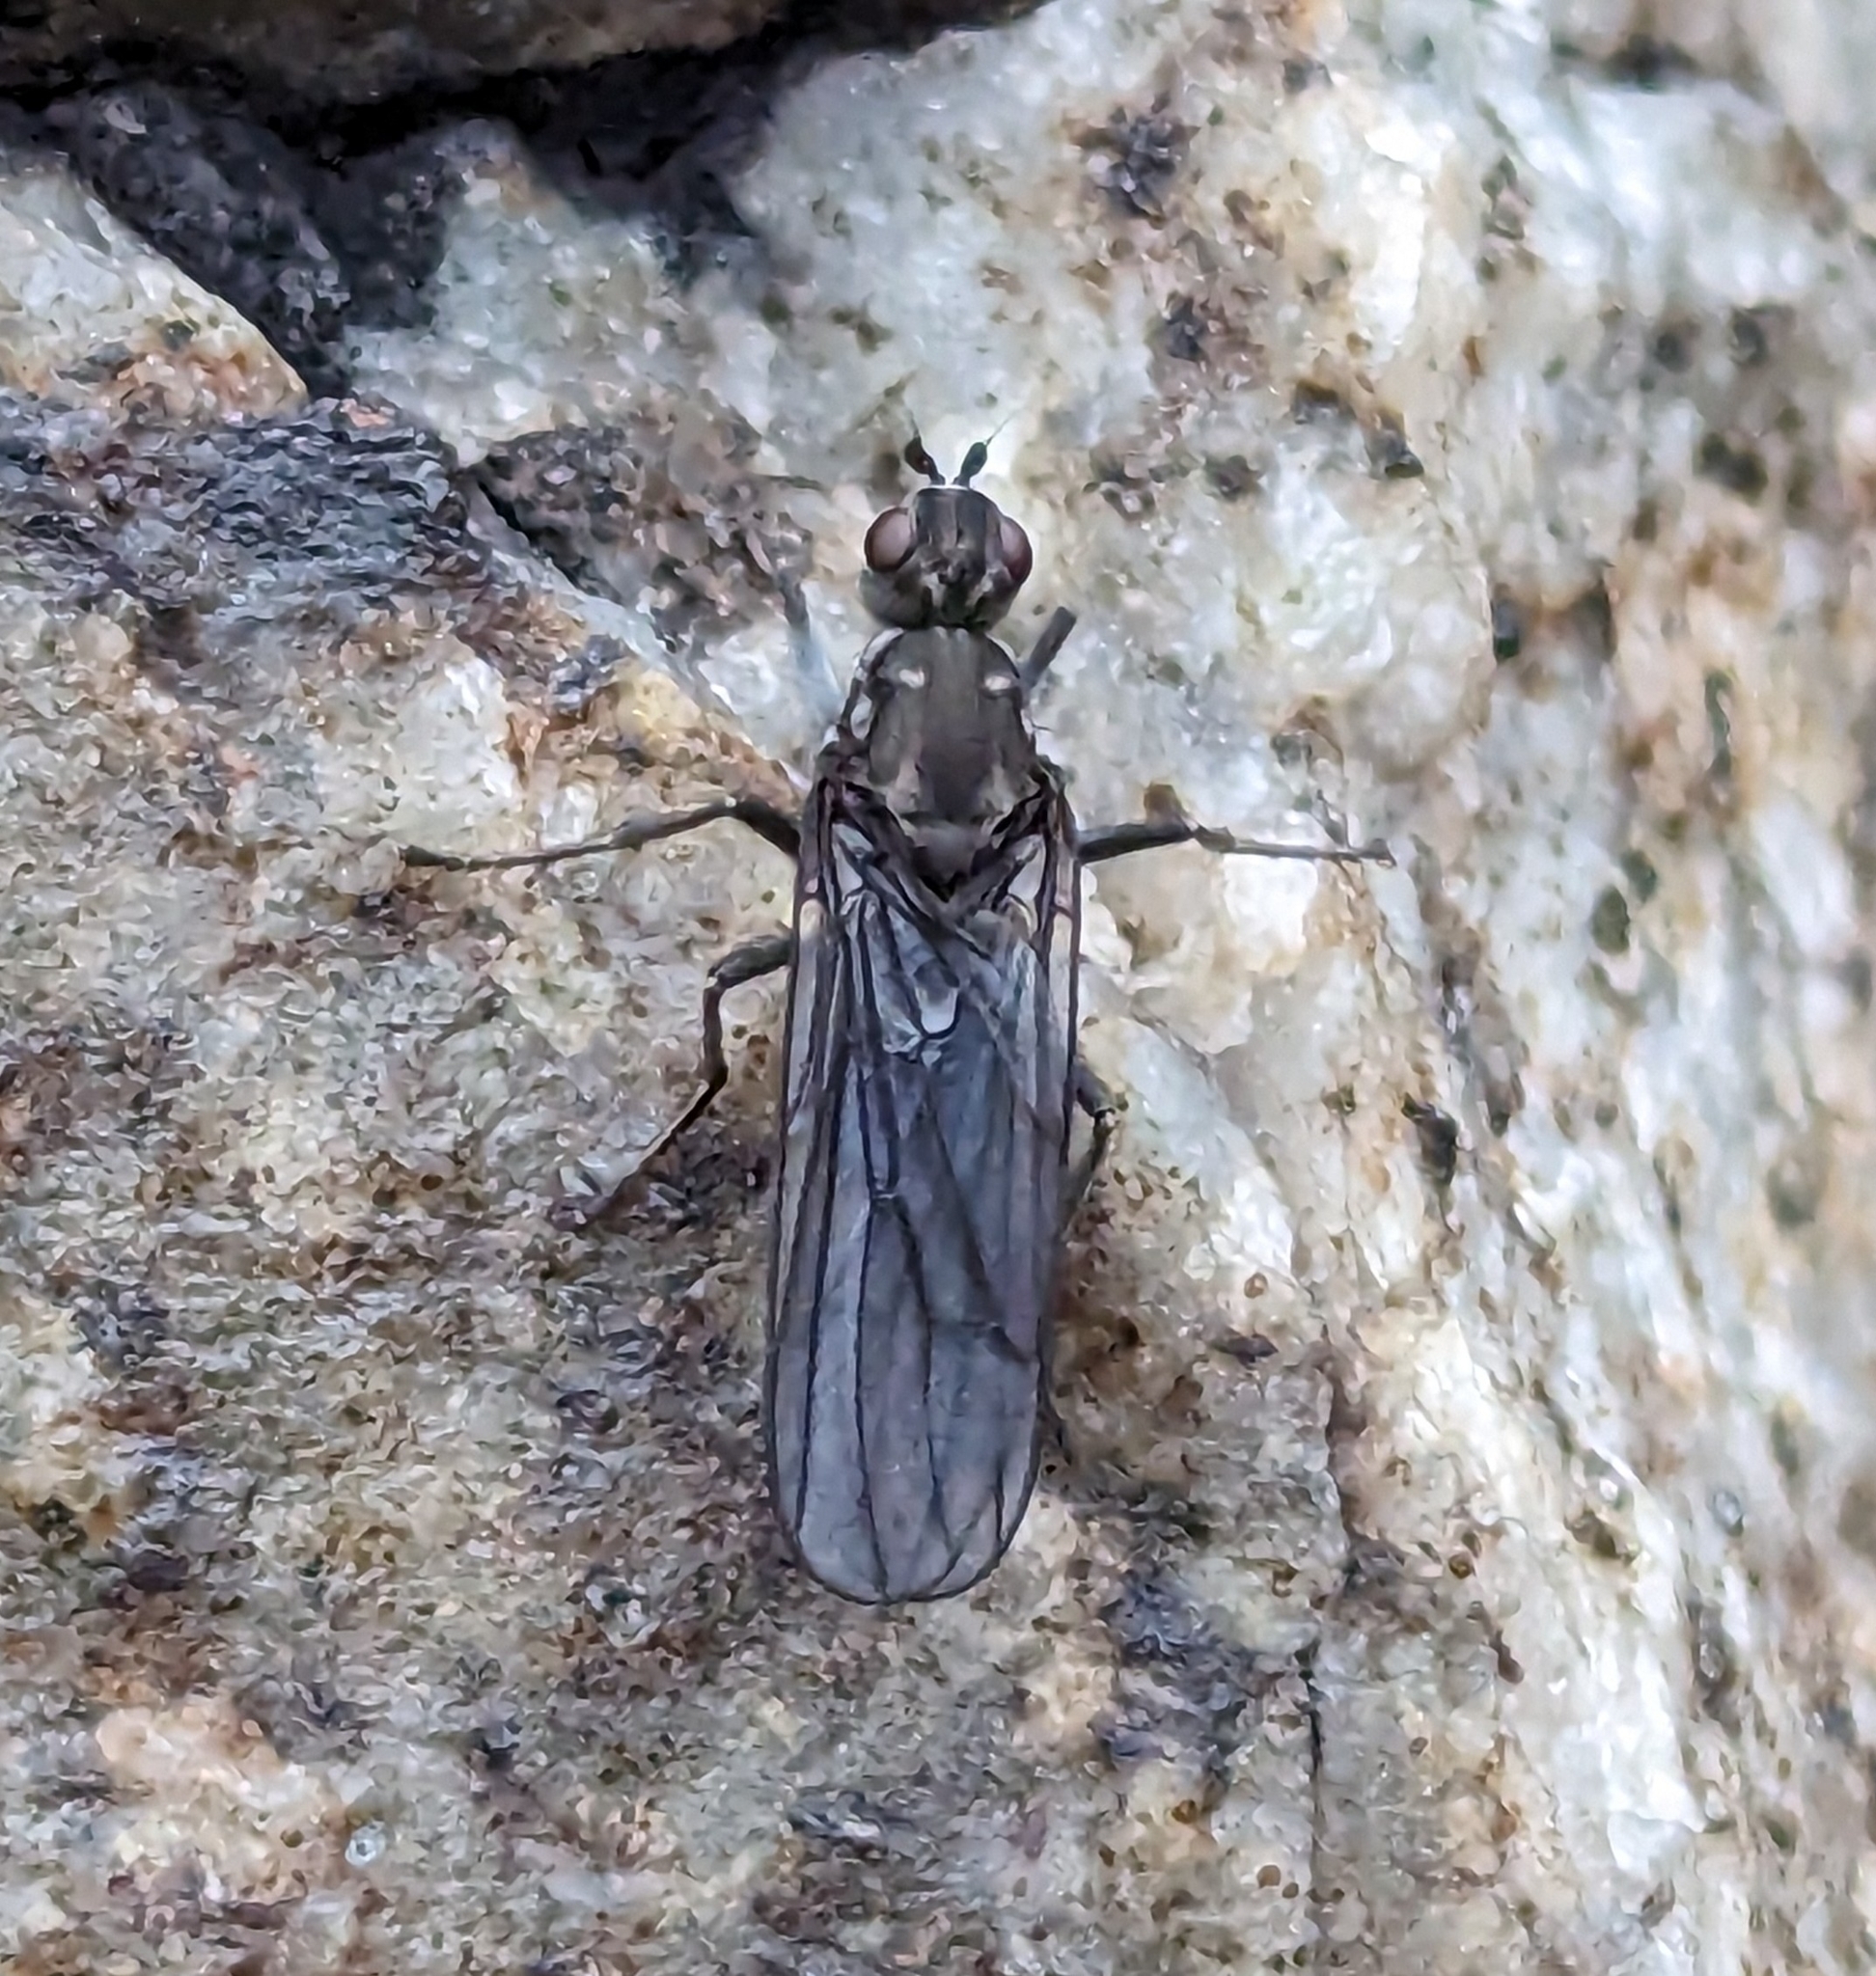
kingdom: Animalia
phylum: Arthropoda
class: Insecta
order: Diptera
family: Dryomyzidae
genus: Oedoparena
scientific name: Oedoparena glauca
